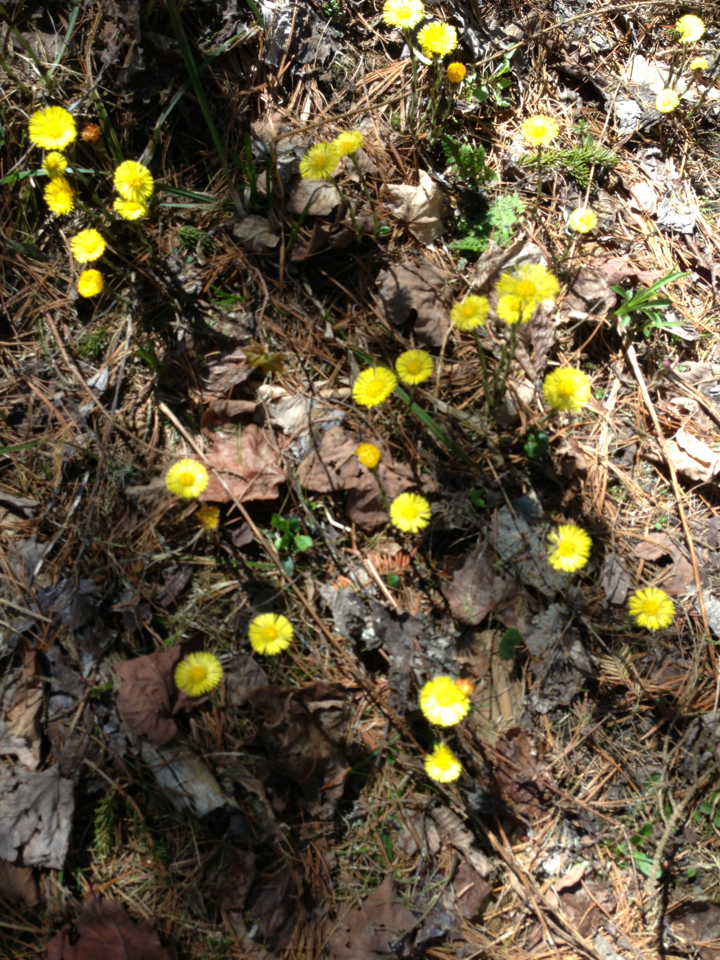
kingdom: Plantae
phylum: Tracheophyta
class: Magnoliopsida
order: Asterales
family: Asteraceae
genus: Tussilago
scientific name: Tussilago farfara
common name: Coltsfoot
